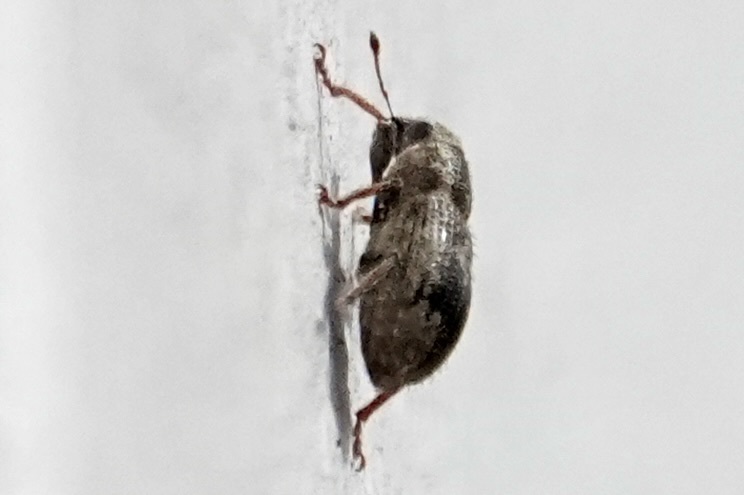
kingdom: Animalia
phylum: Arthropoda
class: Insecta
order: Coleoptera
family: Curculionidae
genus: Sitona
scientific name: Sitona hispidulus
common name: Clover weevil
